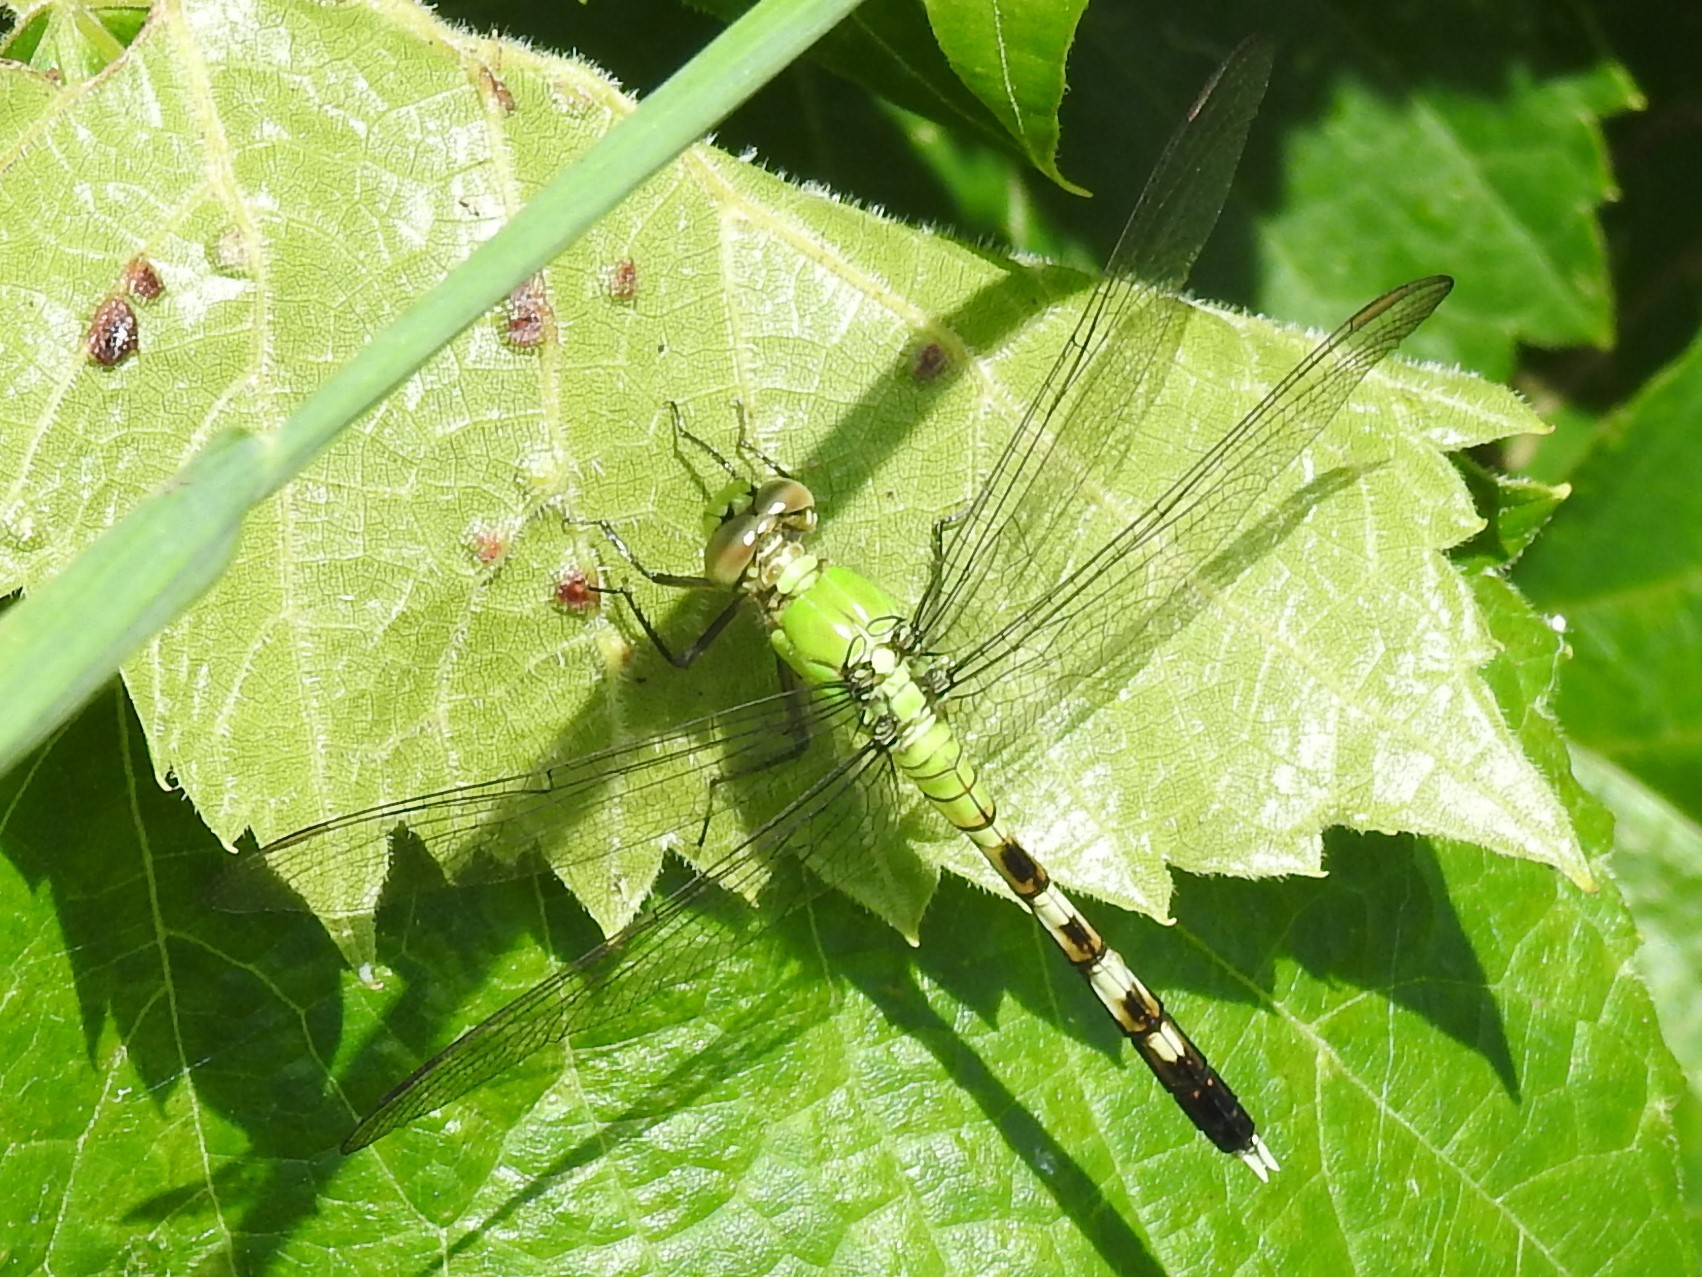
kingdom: Animalia
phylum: Arthropoda
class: Insecta
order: Odonata
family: Libellulidae
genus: Erythemis
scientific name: Erythemis simplicicollis
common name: Eastern pondhawk
